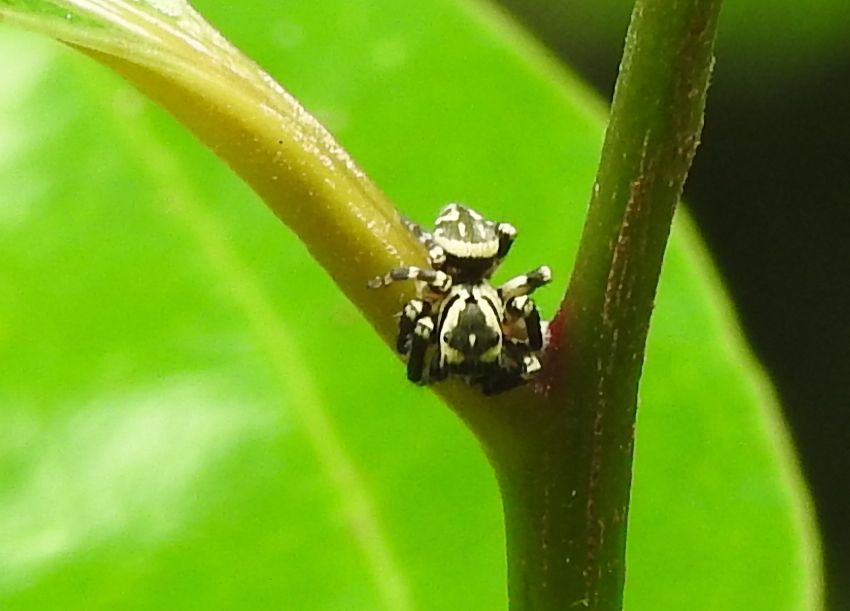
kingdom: Animalia
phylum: Arthropoda
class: Arachnida
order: Araneae
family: Salticidae
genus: Carrhotus
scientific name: Carrhotus sannio
